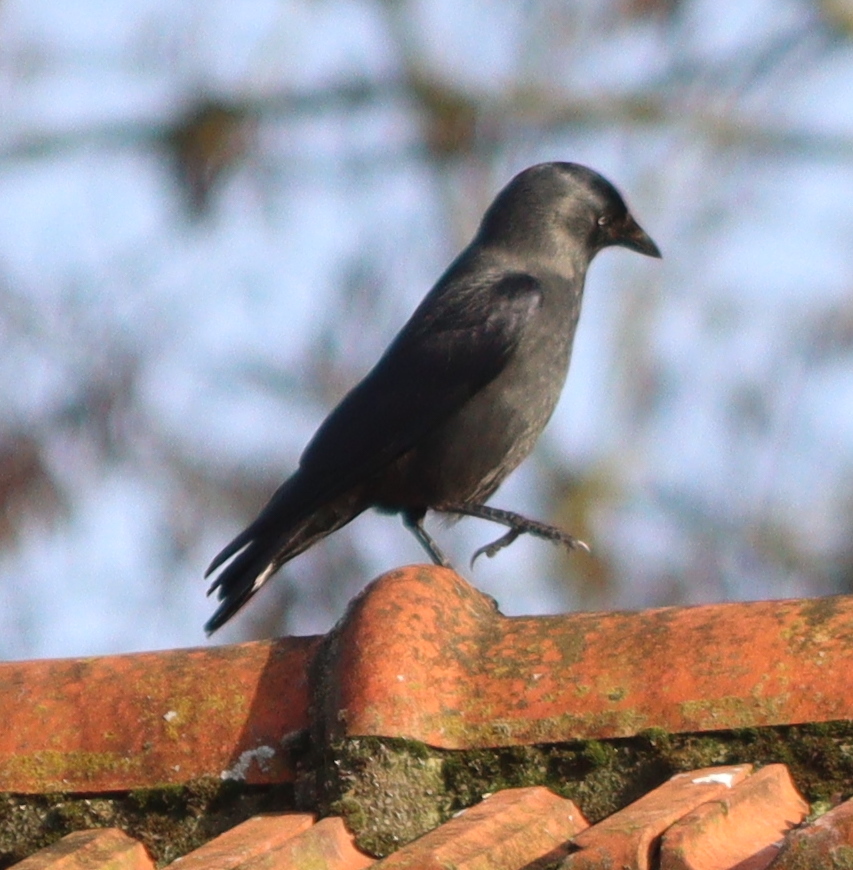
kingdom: Animalia
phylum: Chordata
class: Aves
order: Passeriformes
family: Corvidae
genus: Coloeus
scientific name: Coloeus monedula
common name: Western jackdaw
